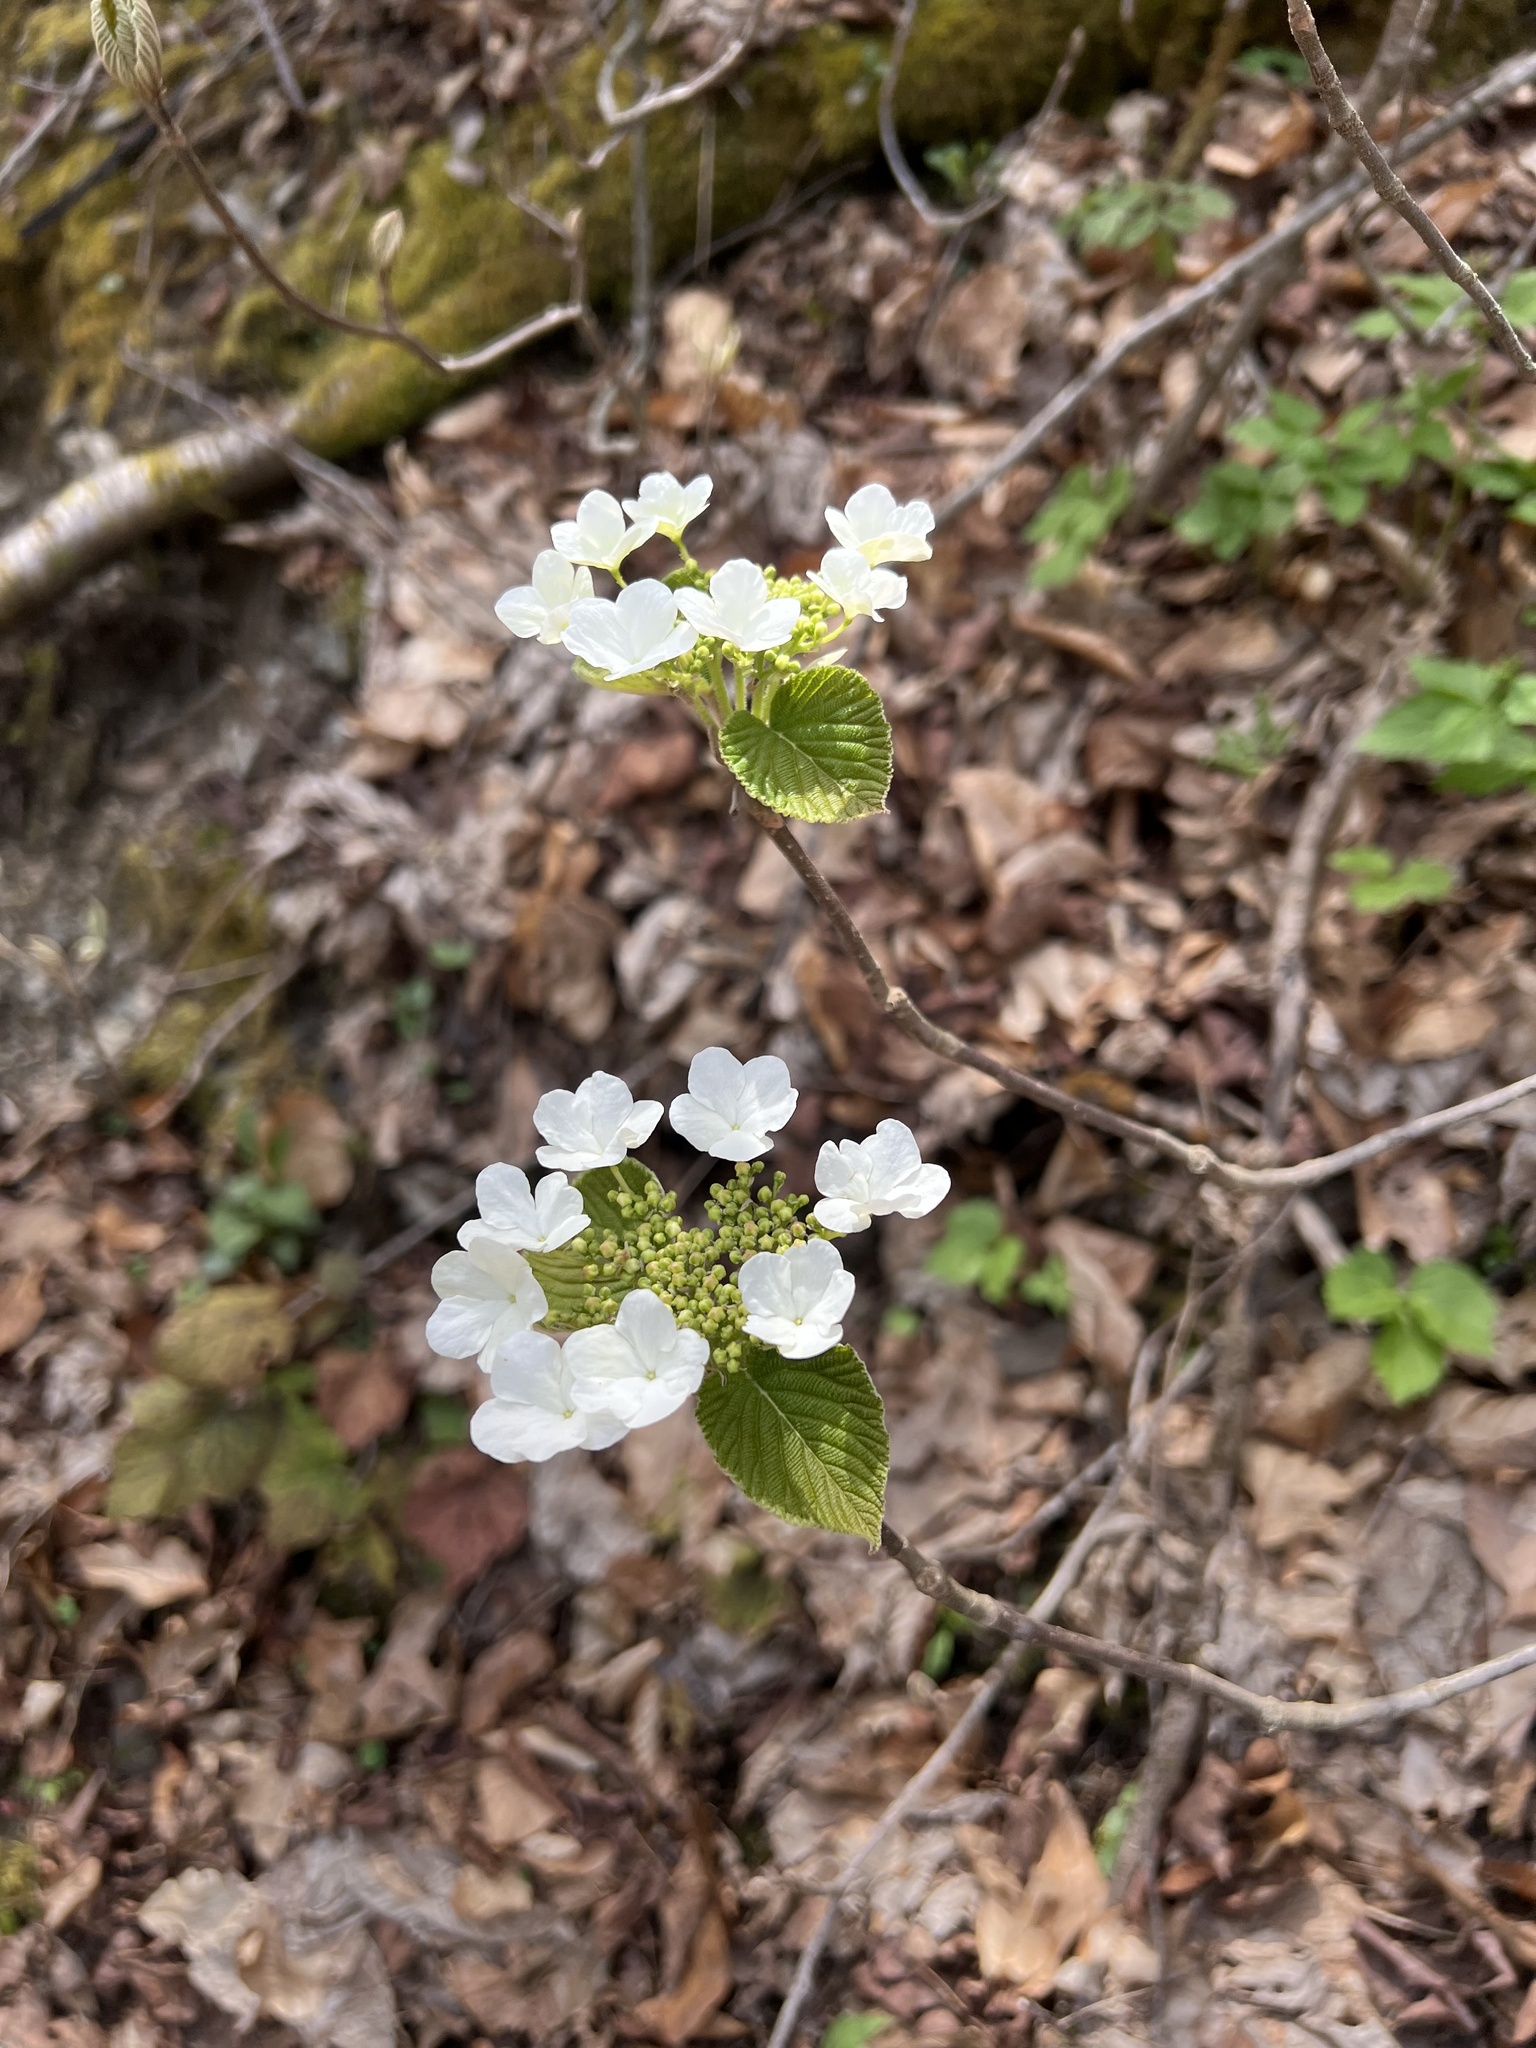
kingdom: Plantae
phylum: Tracheophyta
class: Magnoliopsida
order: Dipsacales
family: Viburnaceae
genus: Viburnum
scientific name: Viburnum lantanoides
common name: Hobblebush
